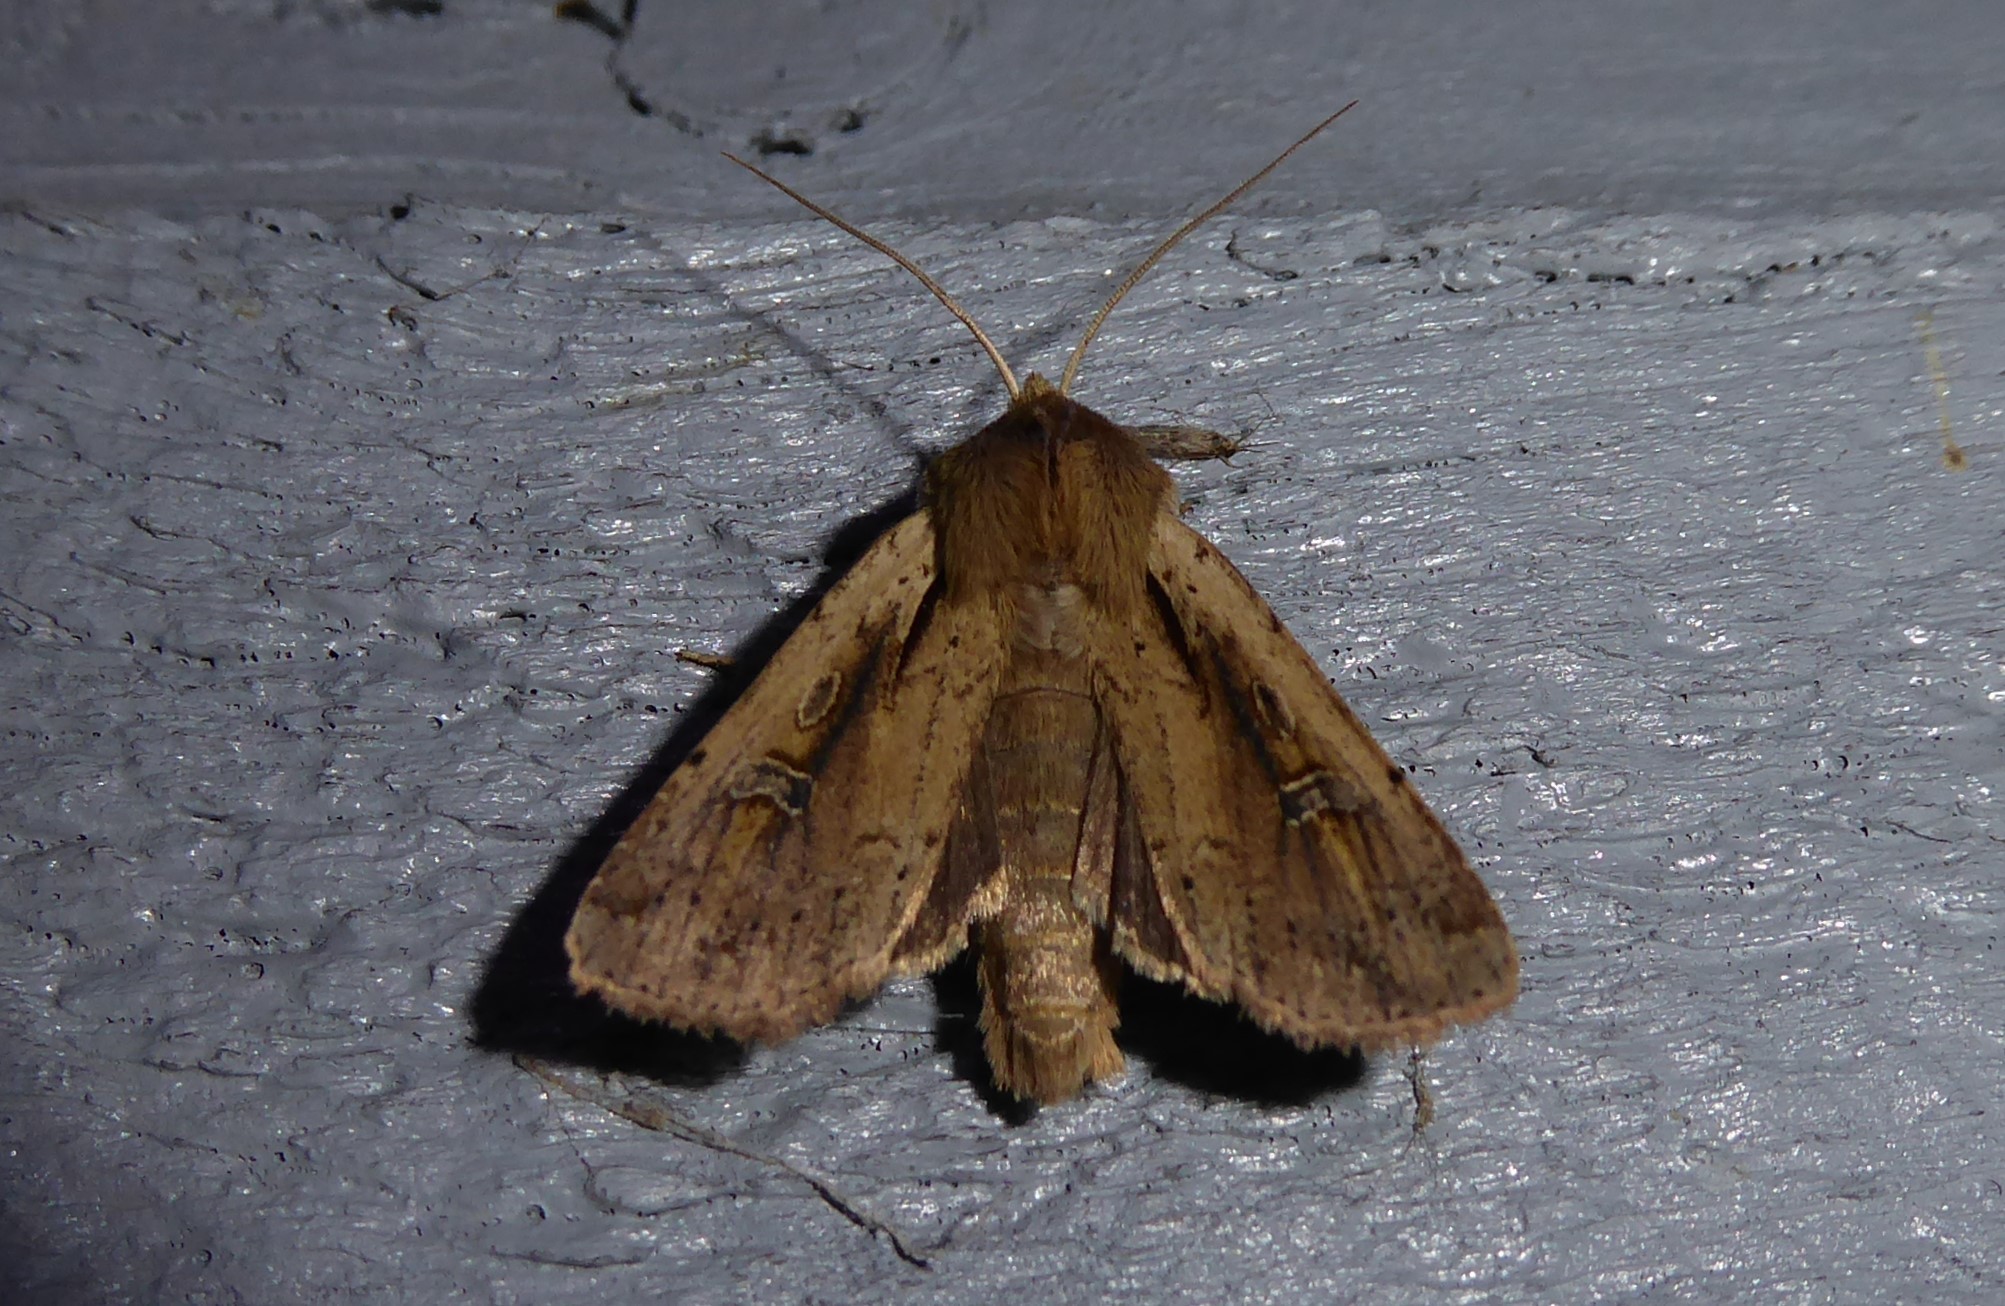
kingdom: Animalia
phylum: Arthropoda
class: Insecta
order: Lepidoptera
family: Noctuidae
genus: Ichneutica
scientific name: Ichneutica atristriga
